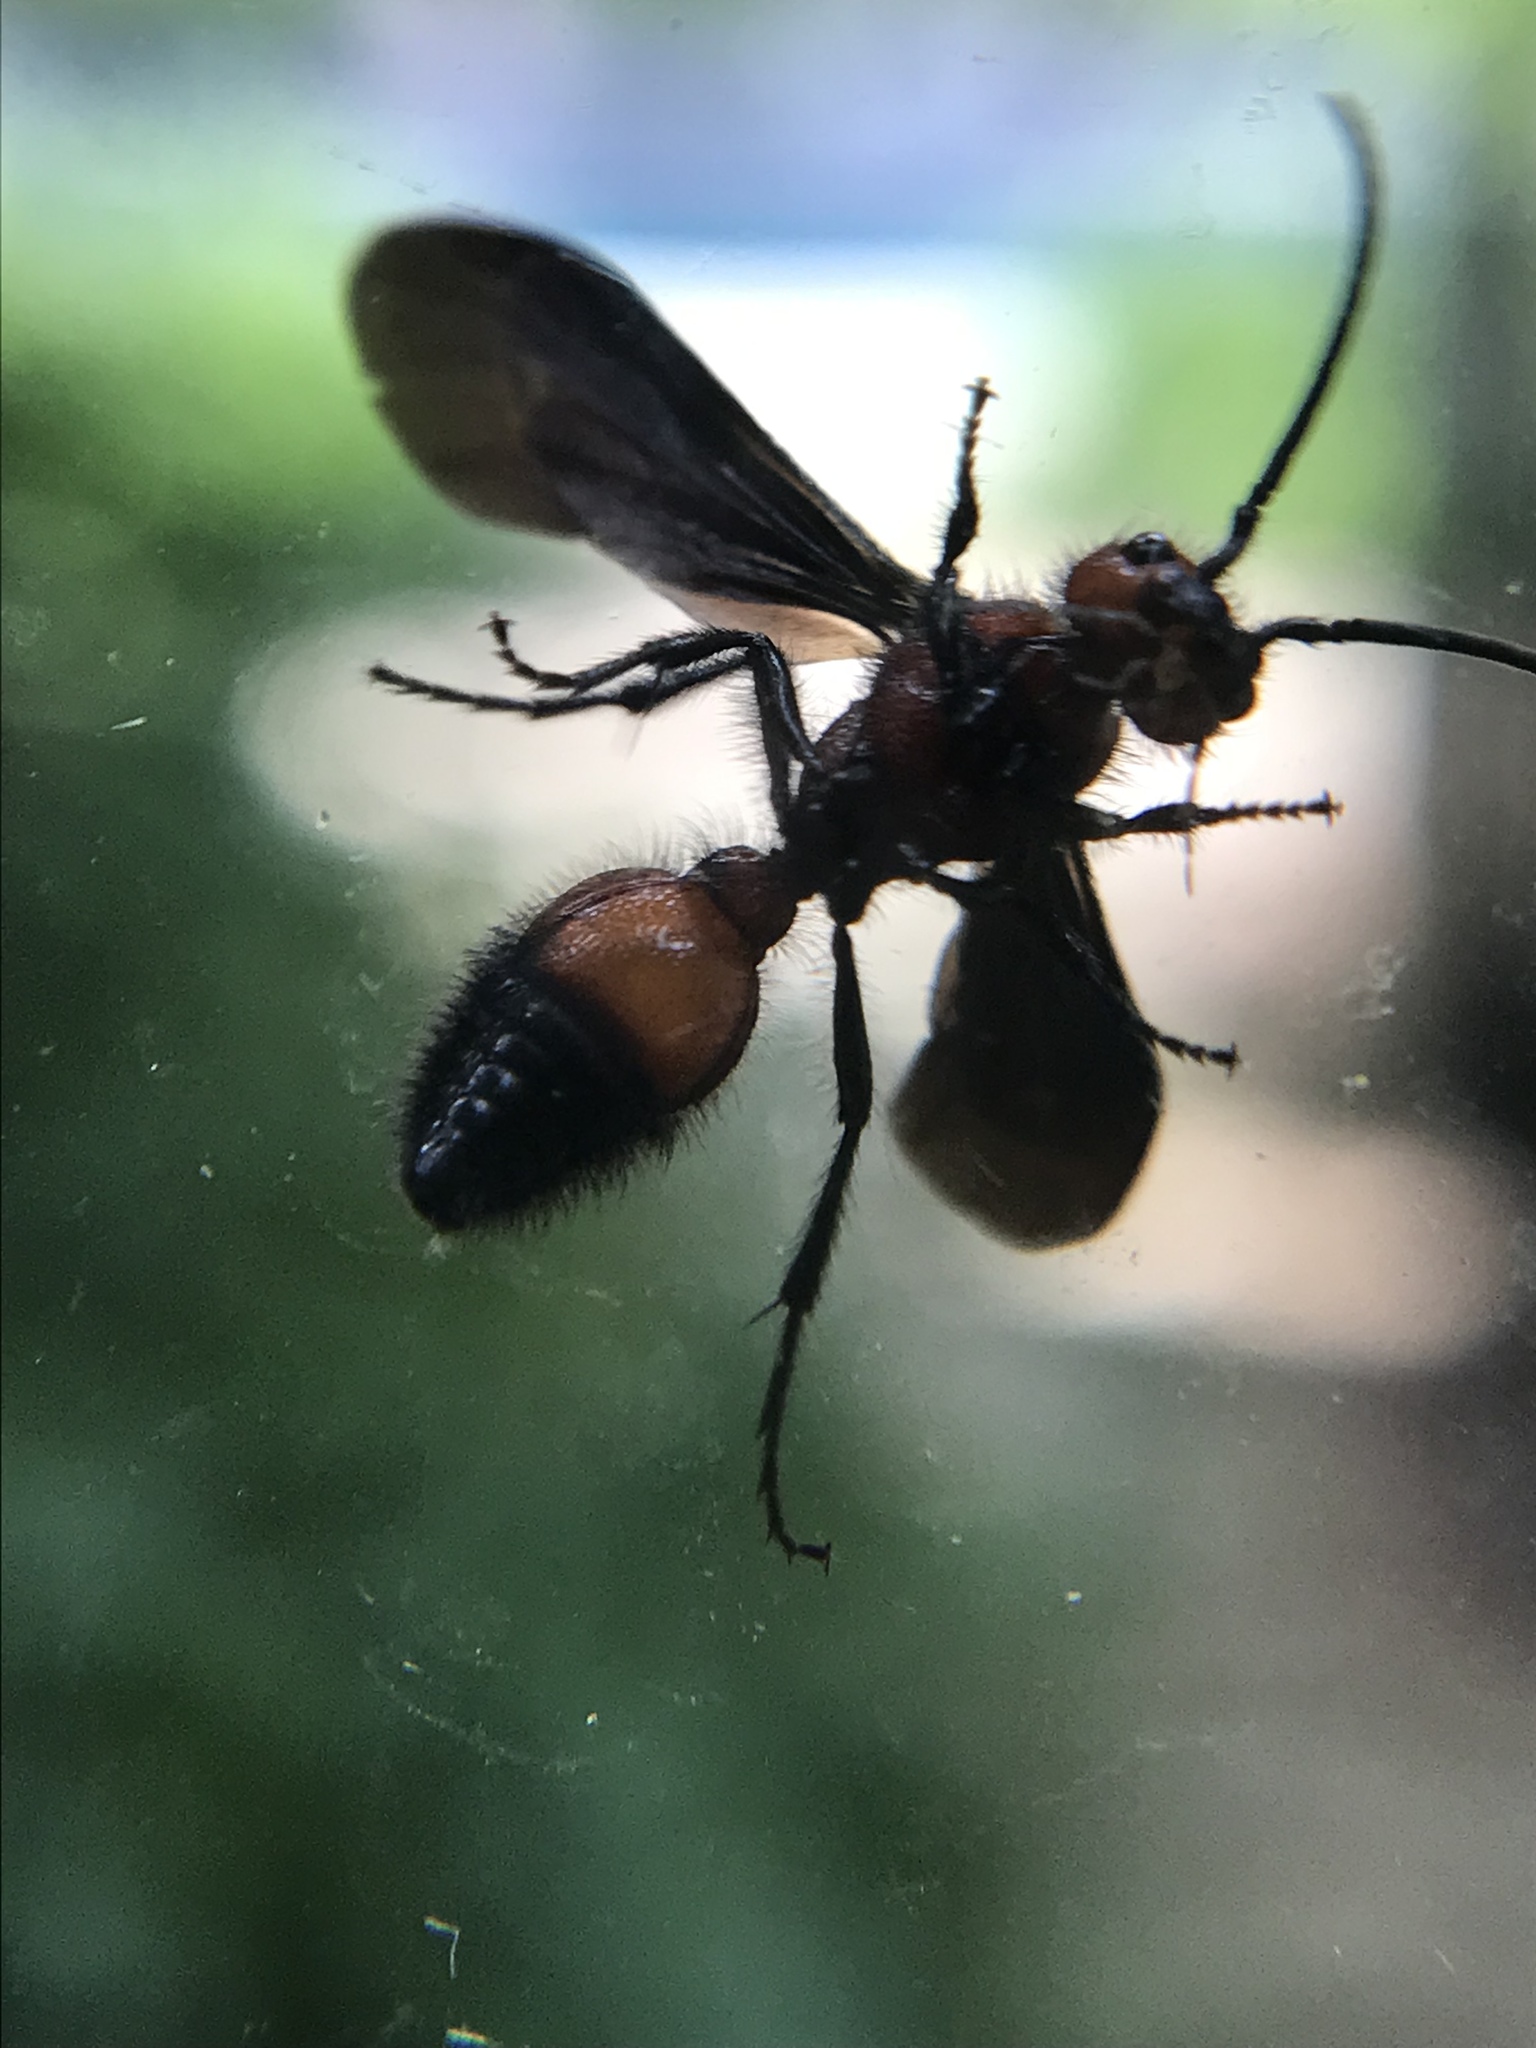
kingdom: Animalia
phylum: Arthropoda
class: Insecta
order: Hymenoptera
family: Mutillidae
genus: Sphaeropthalma
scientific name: Sphaeropthalma
